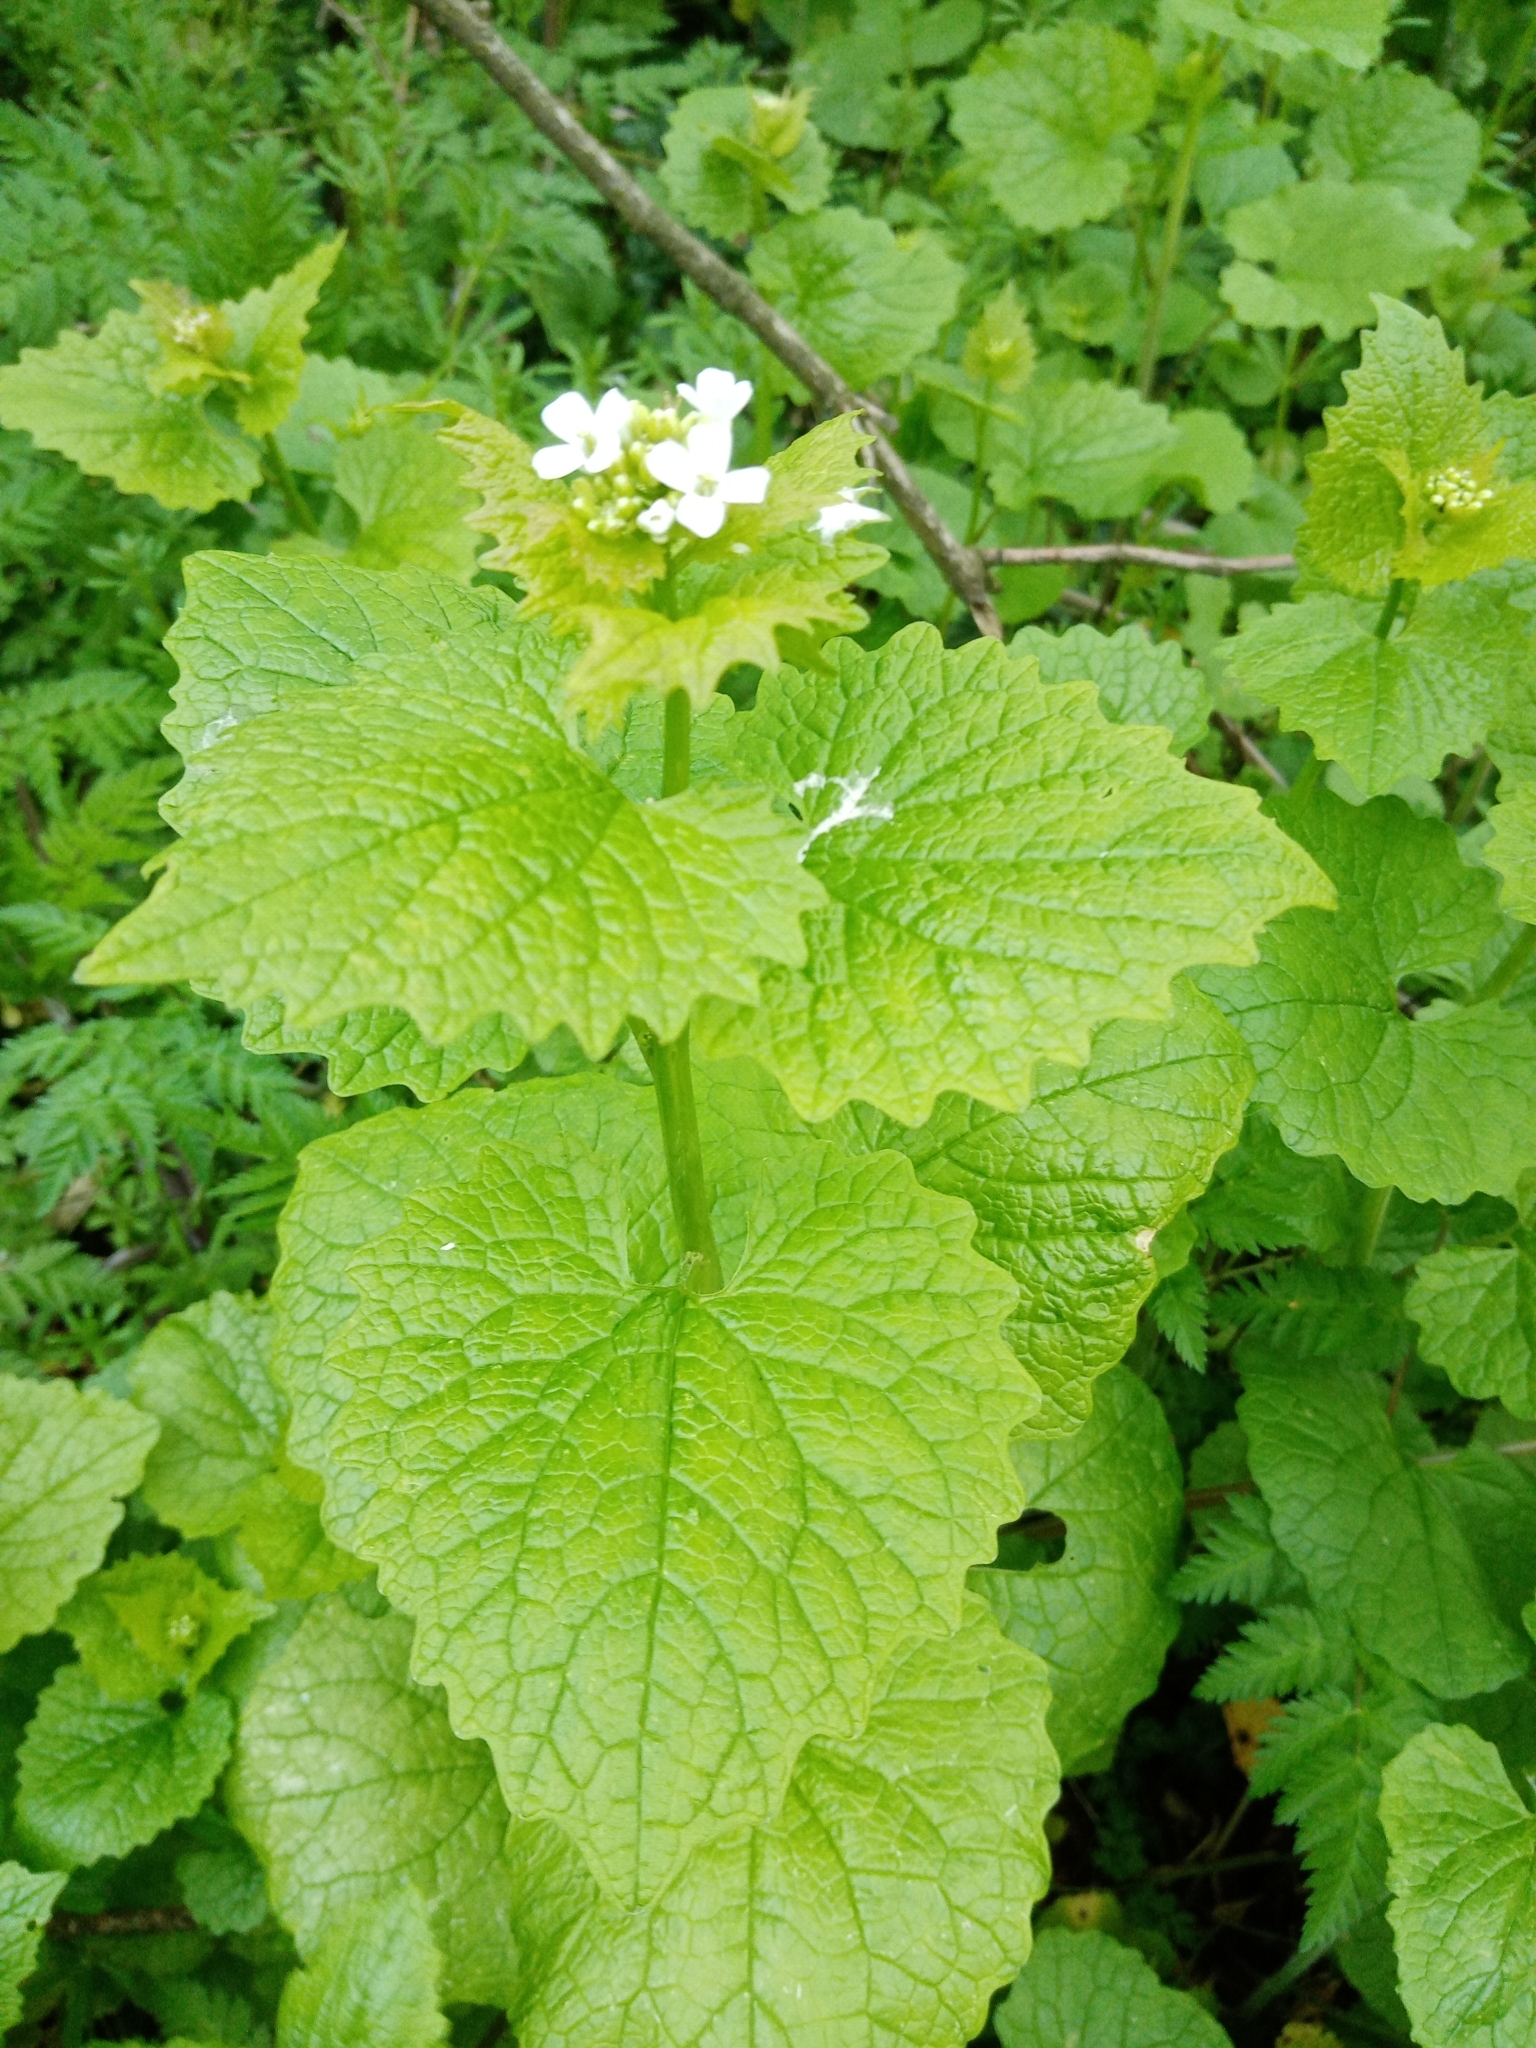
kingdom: Plantae
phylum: Tracheophyta
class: Magnoliopsida
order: Brassicales
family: Brassicaceae
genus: Alliaria
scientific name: Alliaria petiolata
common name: Garlic mustard
